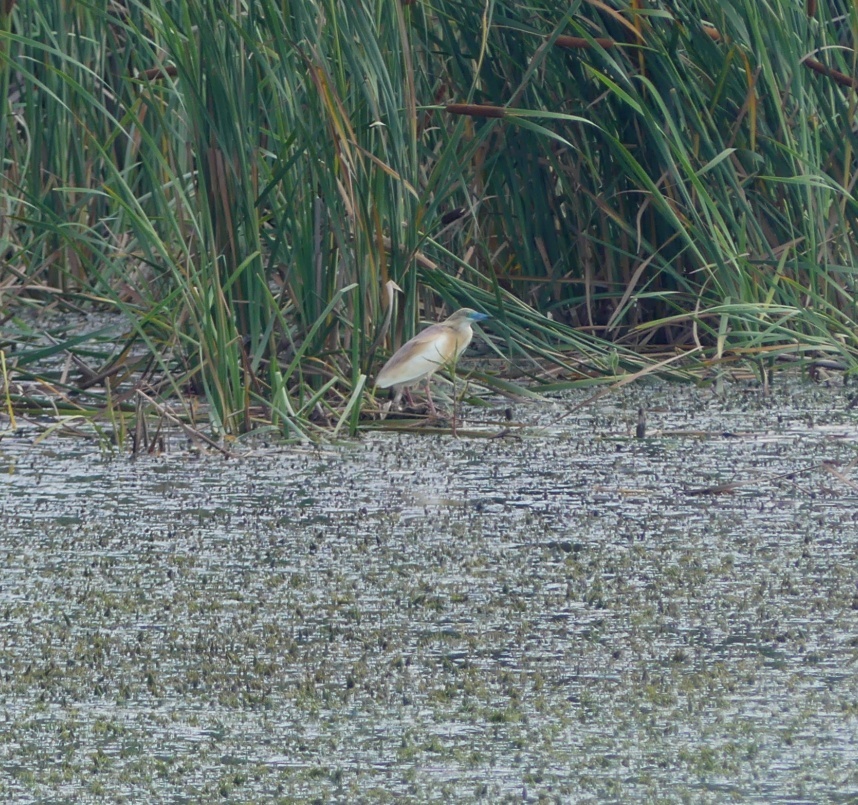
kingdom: Animalia
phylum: Chordata
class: Aves
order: Pelecaniformes
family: Ardeidae
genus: Ardeola
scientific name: Ardeola ralloides
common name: Squacco heron
